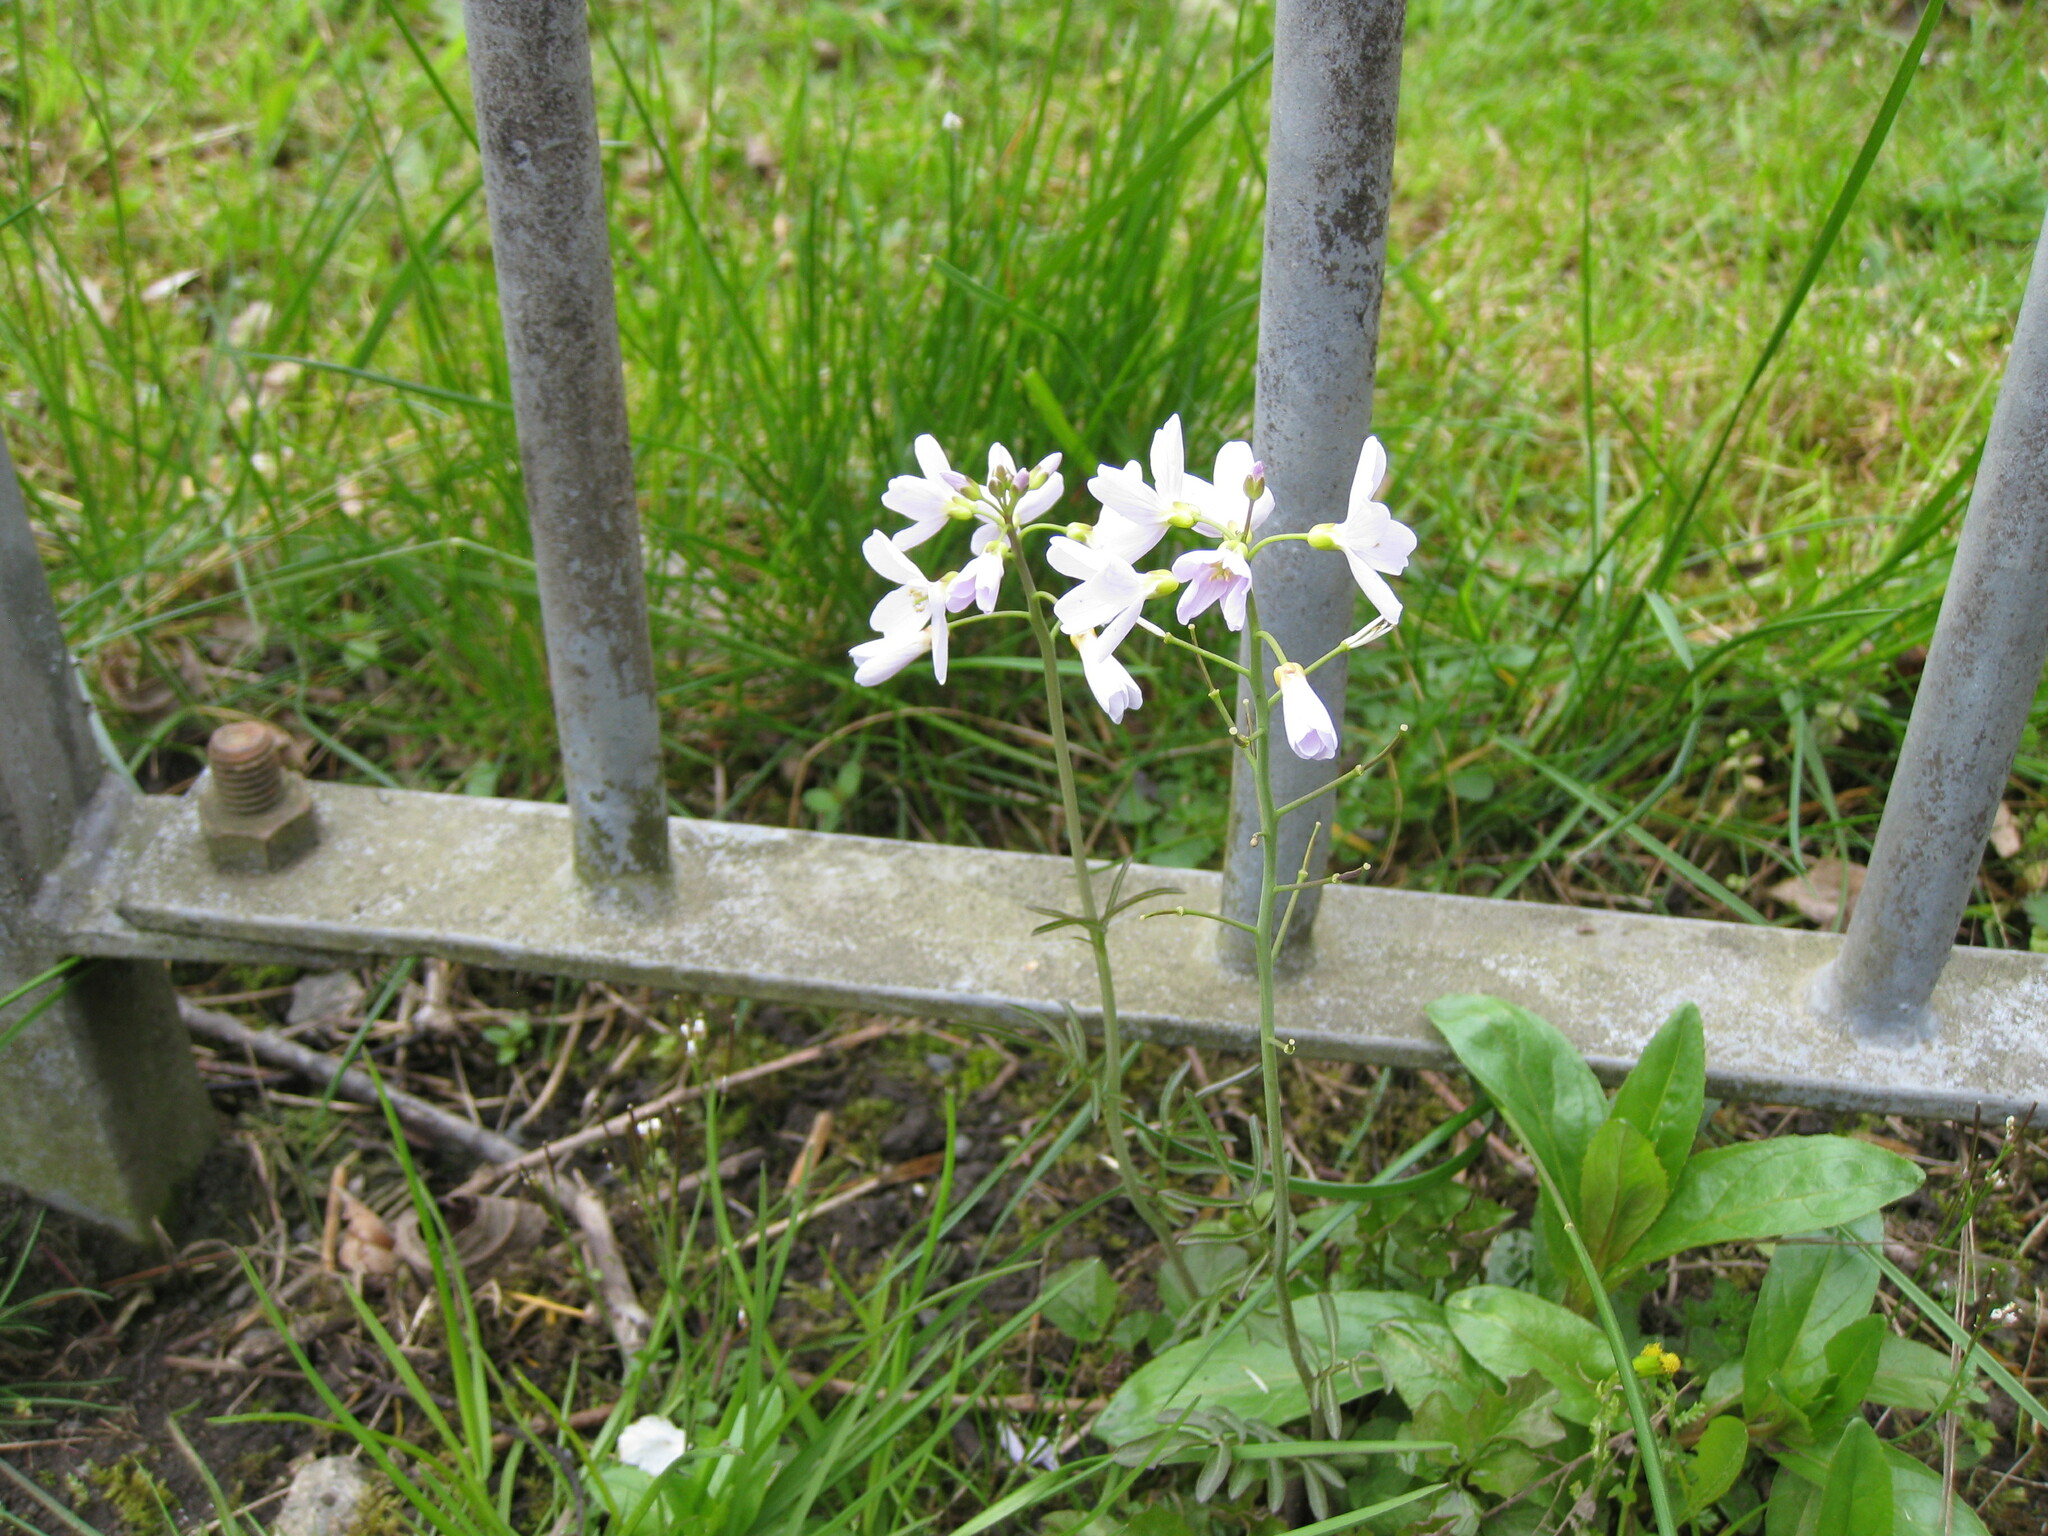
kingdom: Plantae
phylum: Tracheophyta
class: Magnoliopsida
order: Brassicales
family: Brassicaceae
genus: Cardamine
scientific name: Cardamine pratensis
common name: Cuckoo flower
